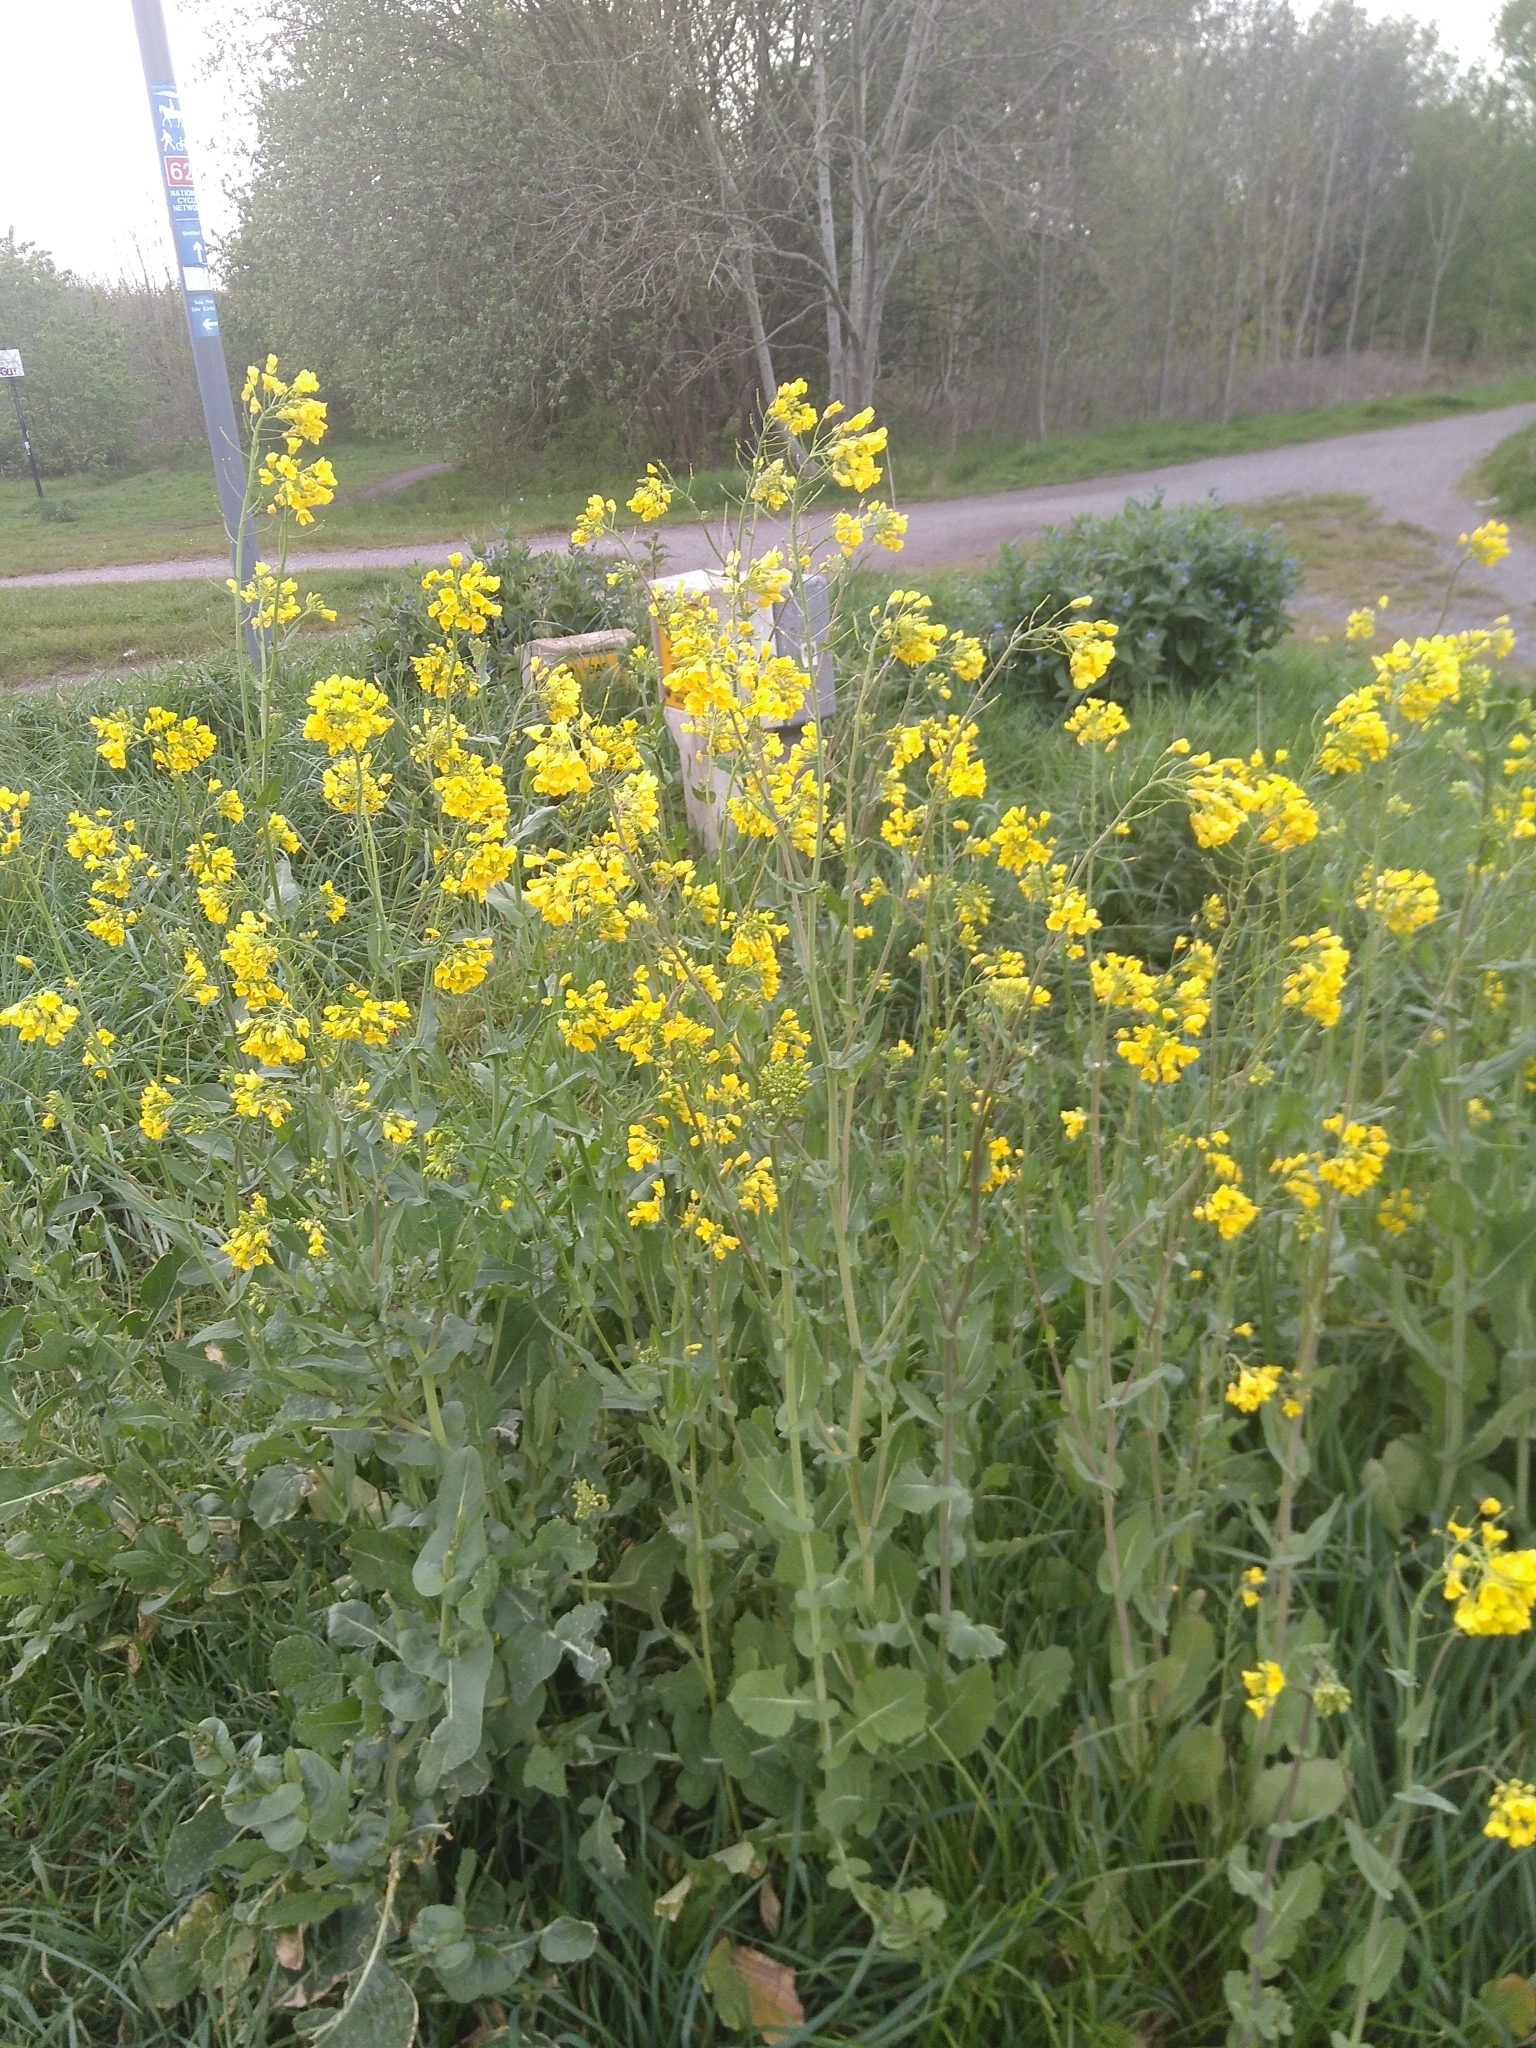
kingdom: Plantae
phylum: Tracheophyta
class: Magnoliopsida
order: Brassicales
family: Brassicaceae
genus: Brassica
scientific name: Brassica napus
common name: Rape
